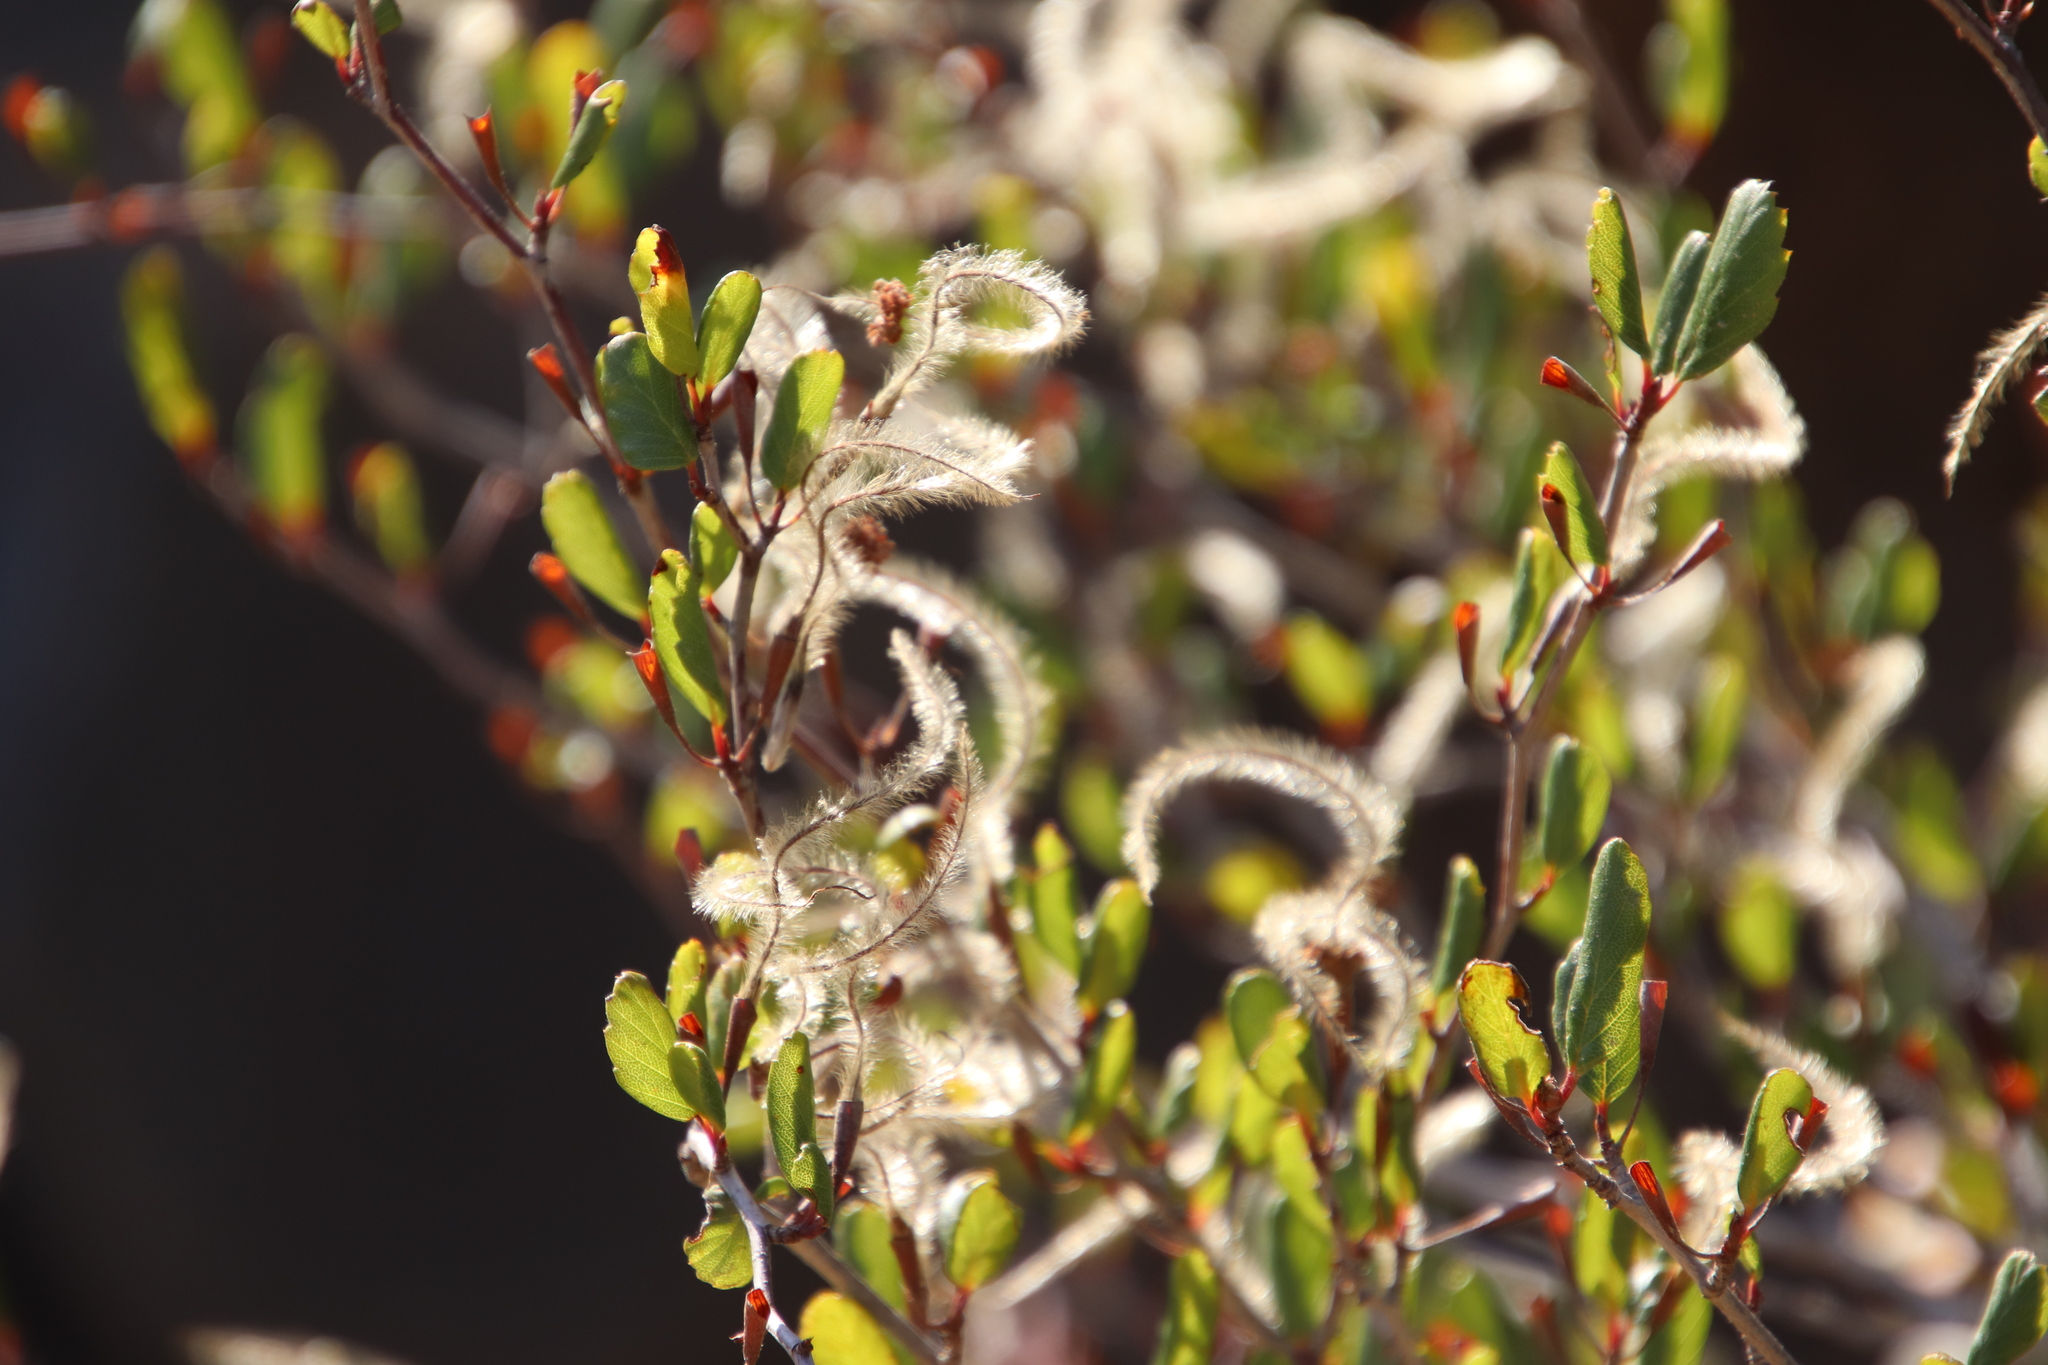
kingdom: Plantae
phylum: Tracheophyta
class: Magnoliopsida
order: Rosales
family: Rosaceae
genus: Cercocarpus
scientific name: Cercocarpus montanus
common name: Alder-leaf cercocarpus
